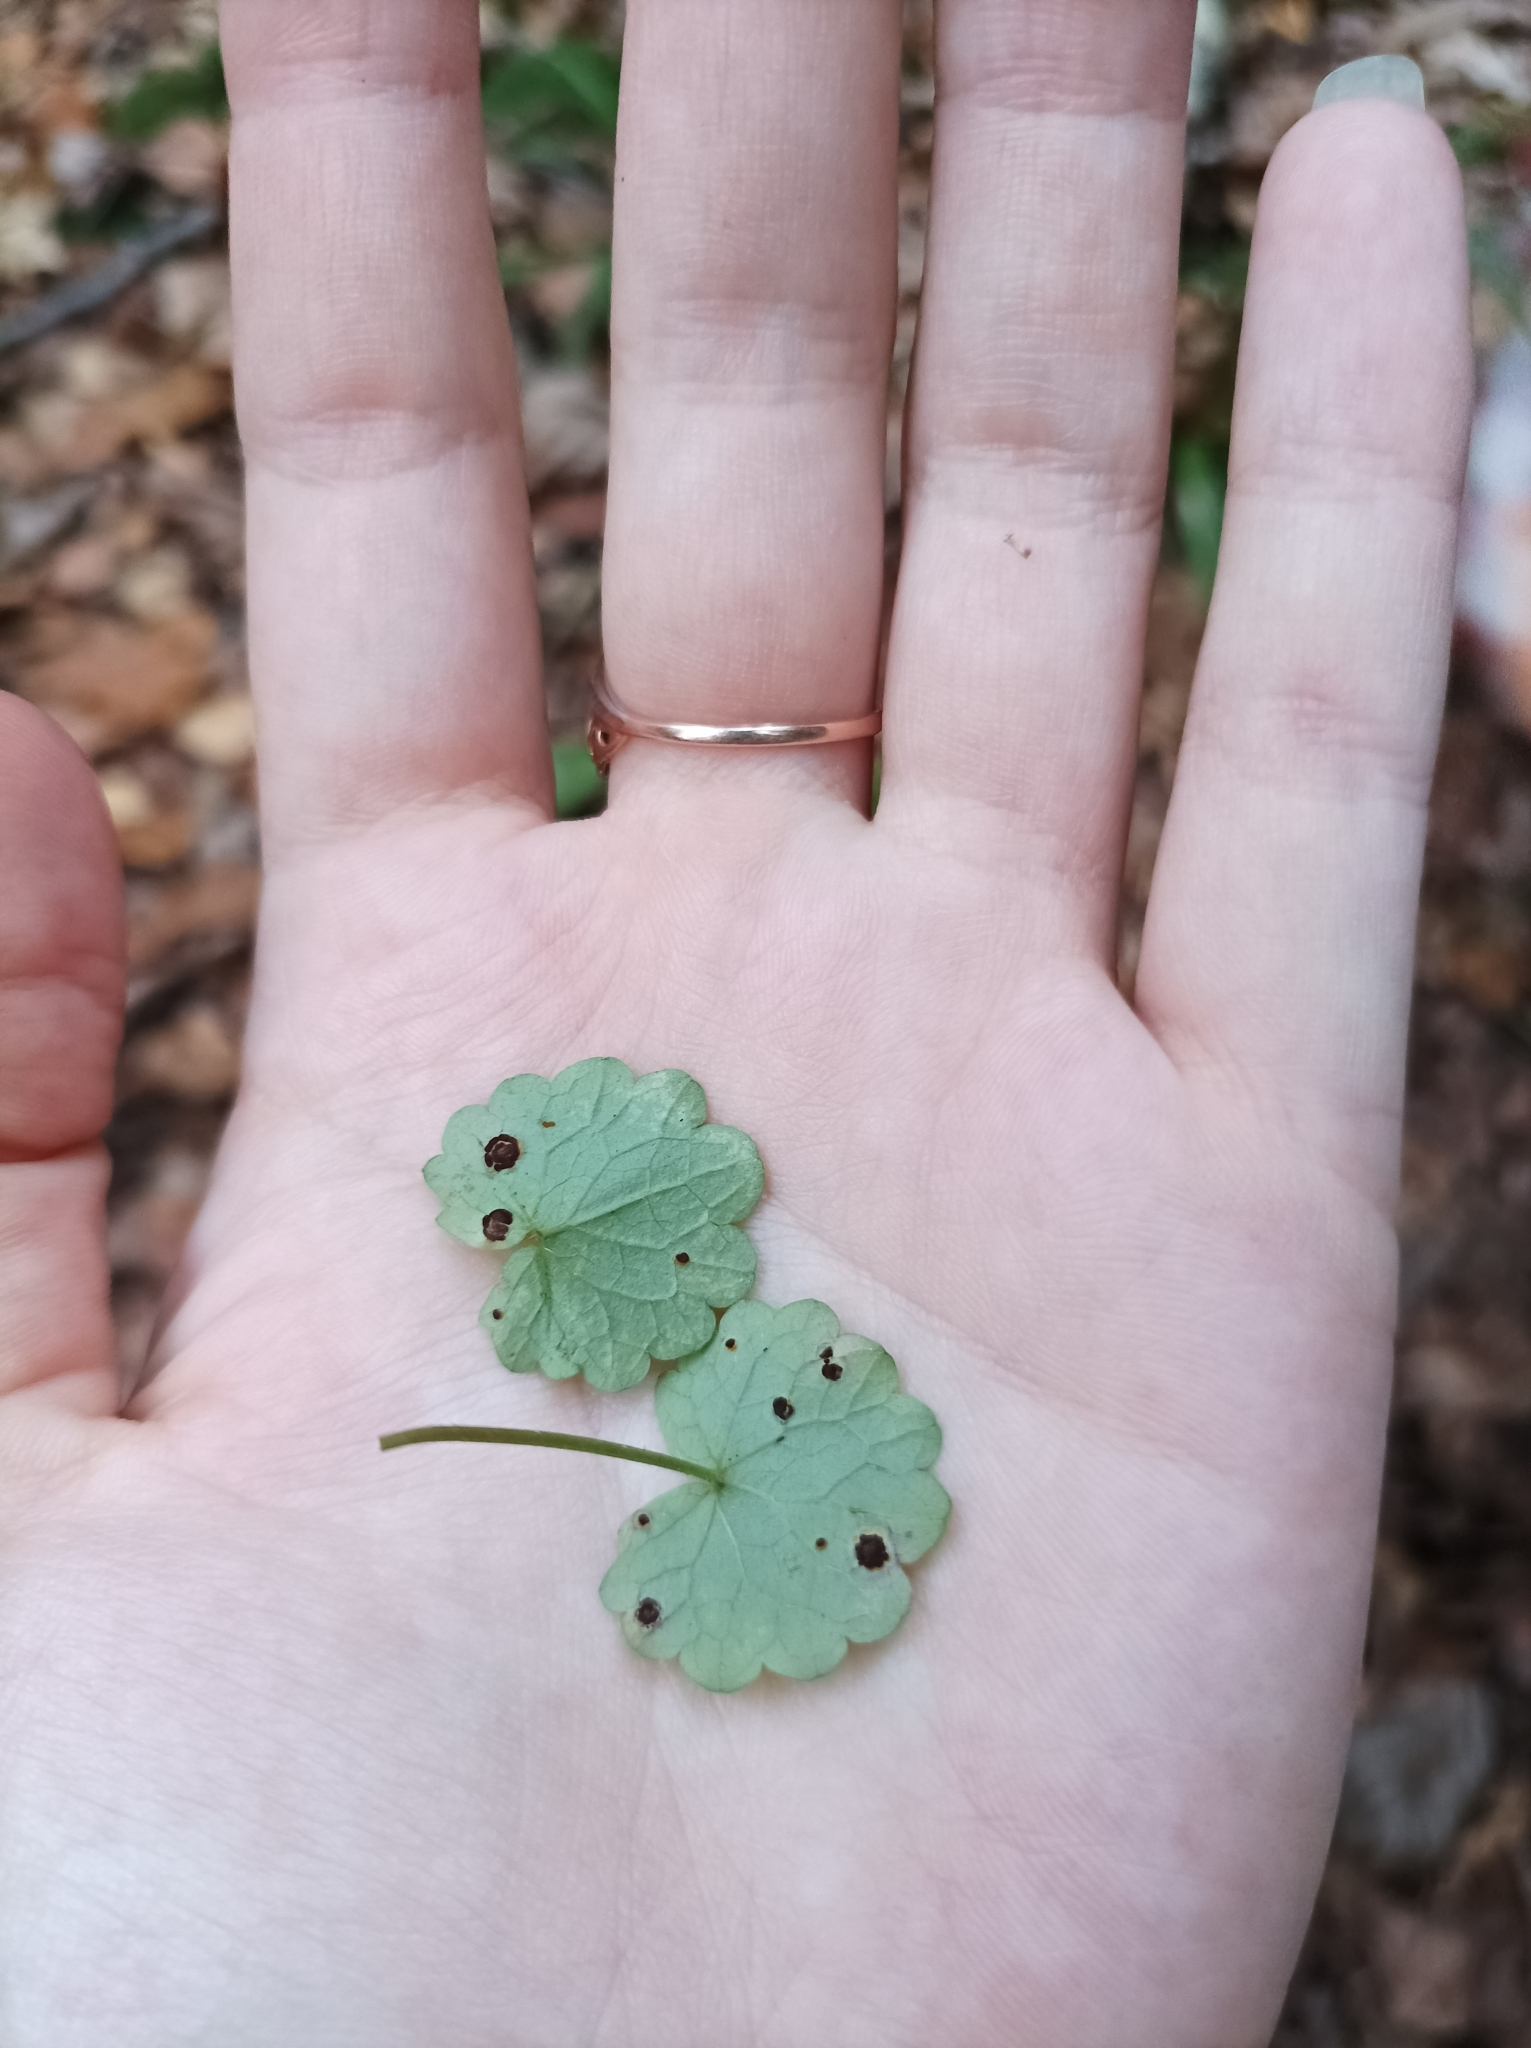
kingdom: Plantae
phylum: Tracheophyta
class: Magnoliopsida
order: Lamiales
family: Lamiaceae
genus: Glechoma
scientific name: Glechoma hederacea
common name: Ground ivy
